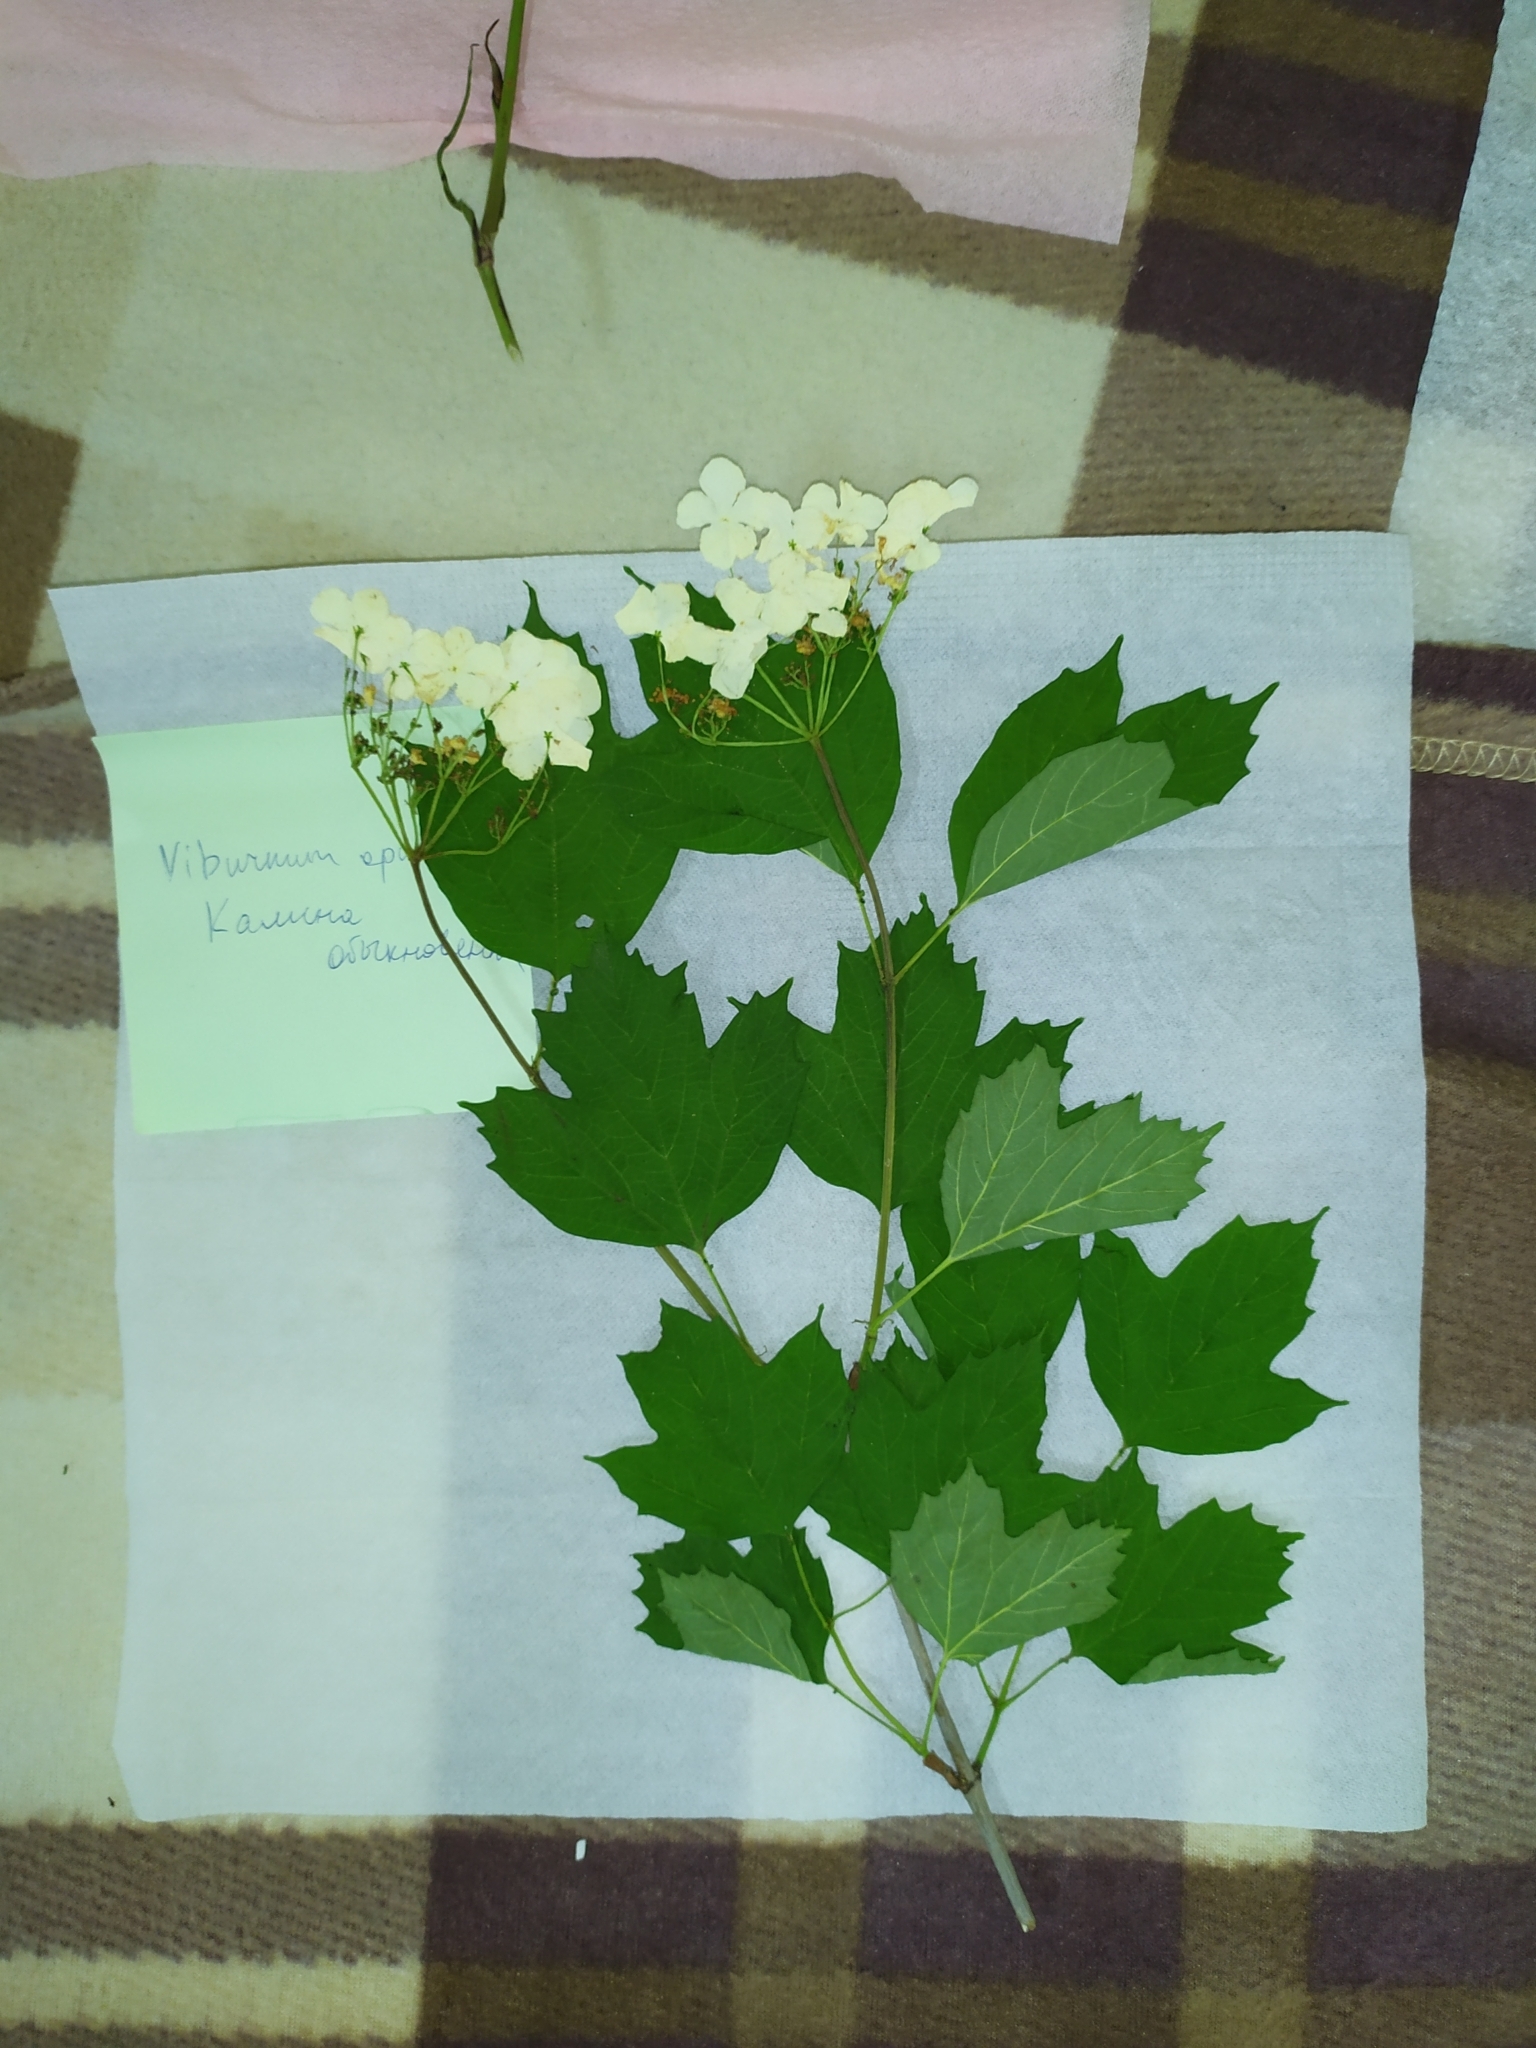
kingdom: Plantae
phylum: Tracheophyta
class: Magnoliopsida
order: Dipsacales
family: Viburnaceae
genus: Viburnum
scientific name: Viburnum opulus
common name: Guelder-rose
